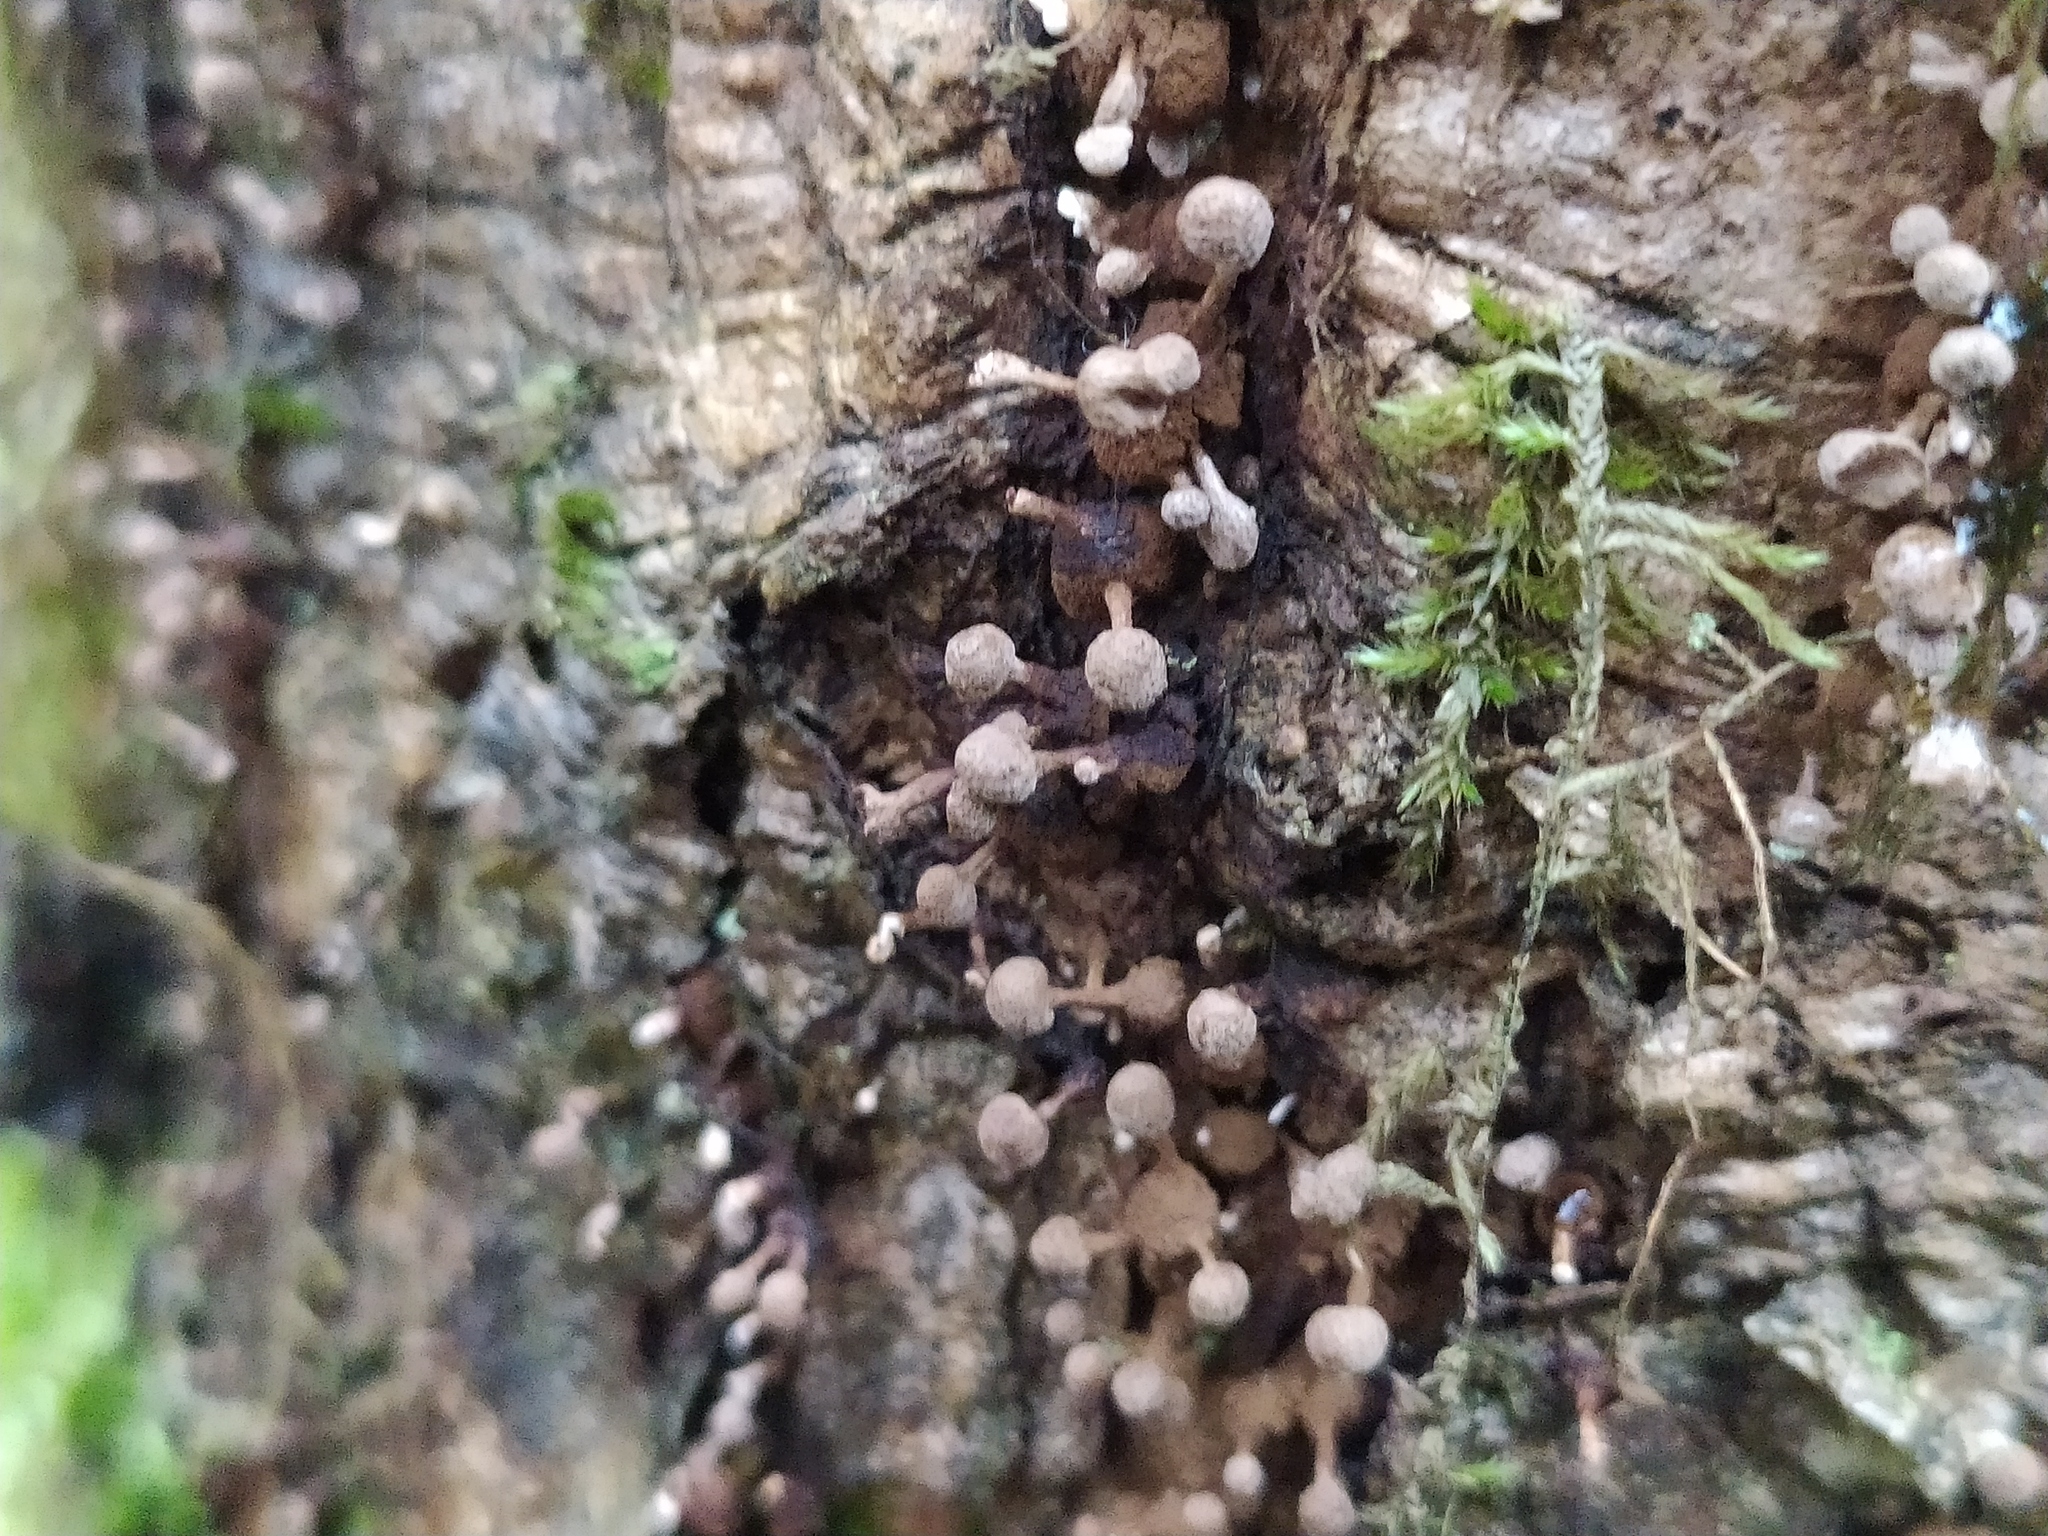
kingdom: Fungi
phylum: Basidiomycota
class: Atractiellomycetes
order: Atractiellales
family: Phleogenaceae
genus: Phleogena
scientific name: Phleogena faginea
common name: Fenugreek stalkball
